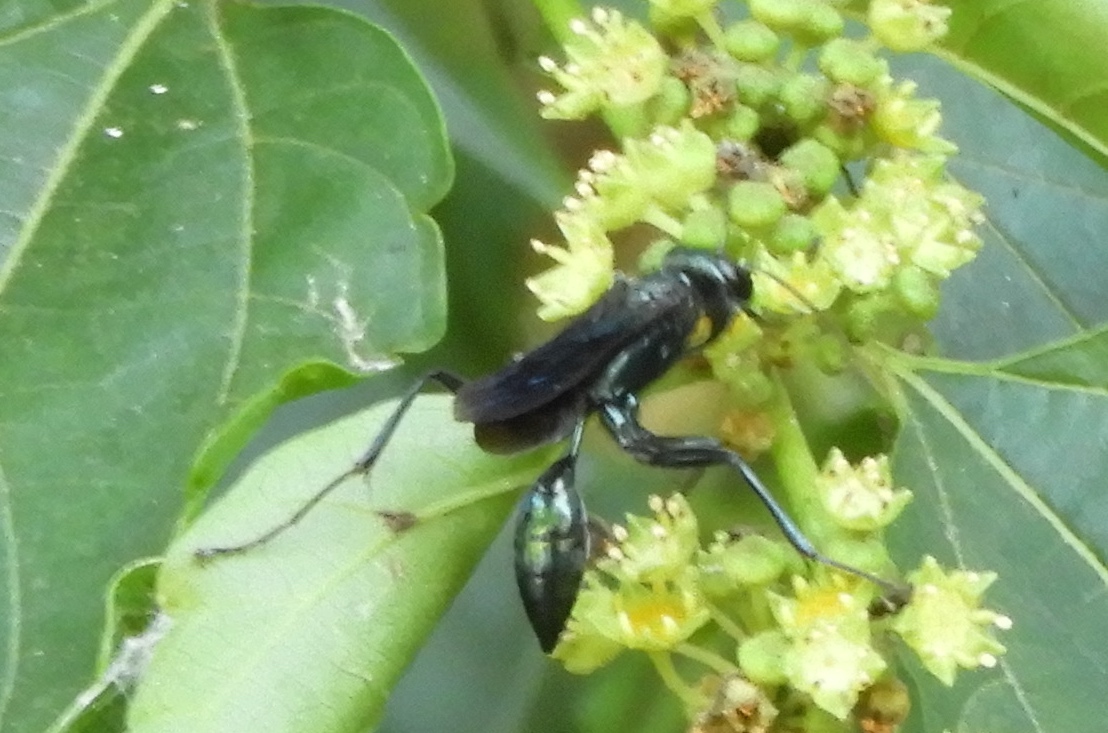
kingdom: Animalia
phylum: Arthropoda
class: Insecta
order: Hymenoptera
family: Sphecidae
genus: Chalybion
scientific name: Chalybion
